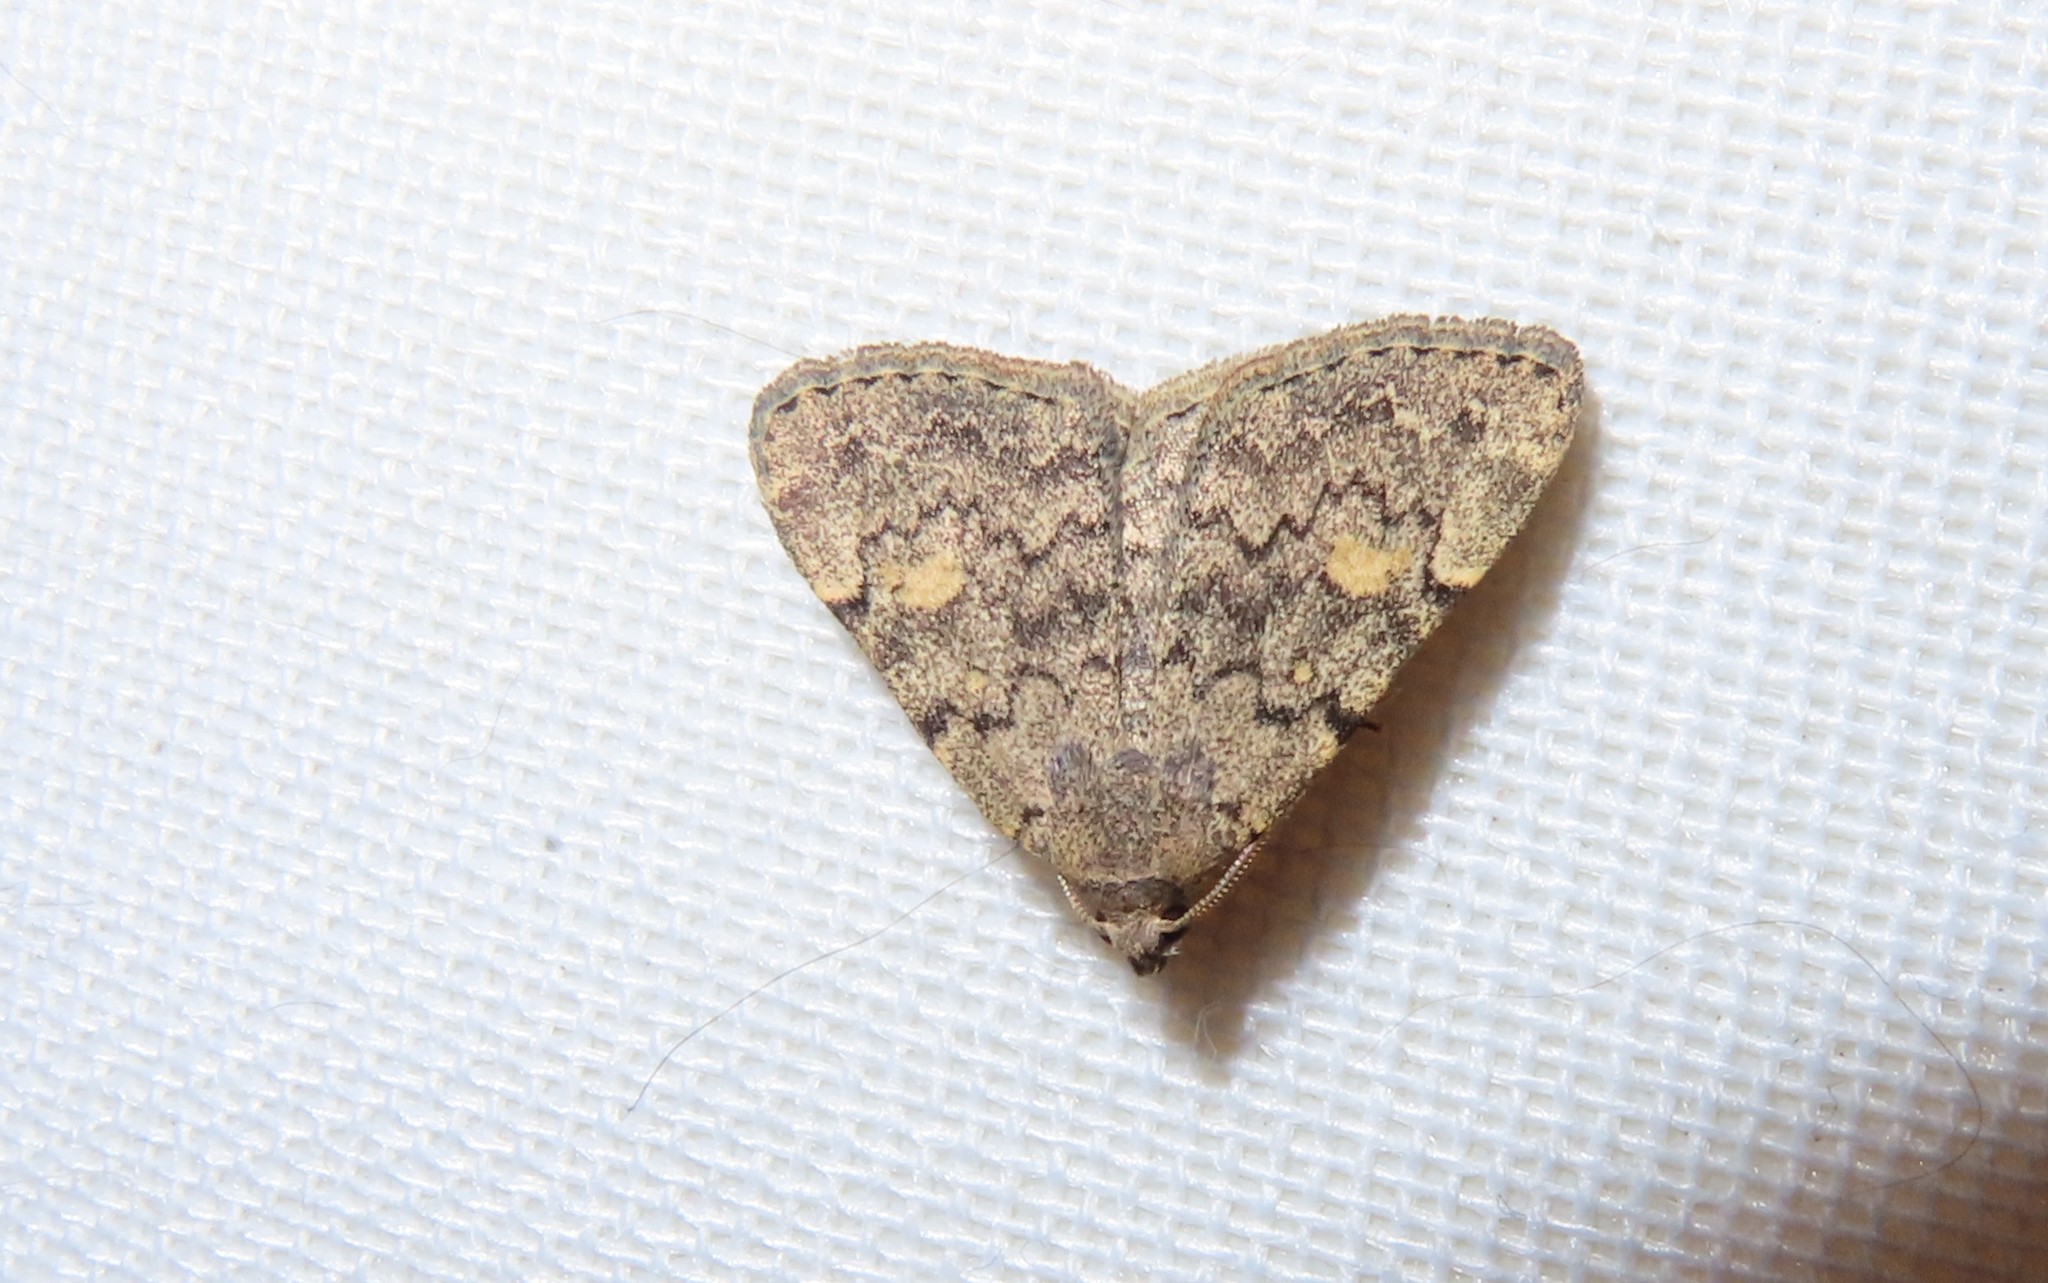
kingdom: Animalia
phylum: Arthropoda
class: Insecta
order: Lepidoptera
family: Erebidae
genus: Idia
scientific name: Idia aemula
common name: Common idia moth
